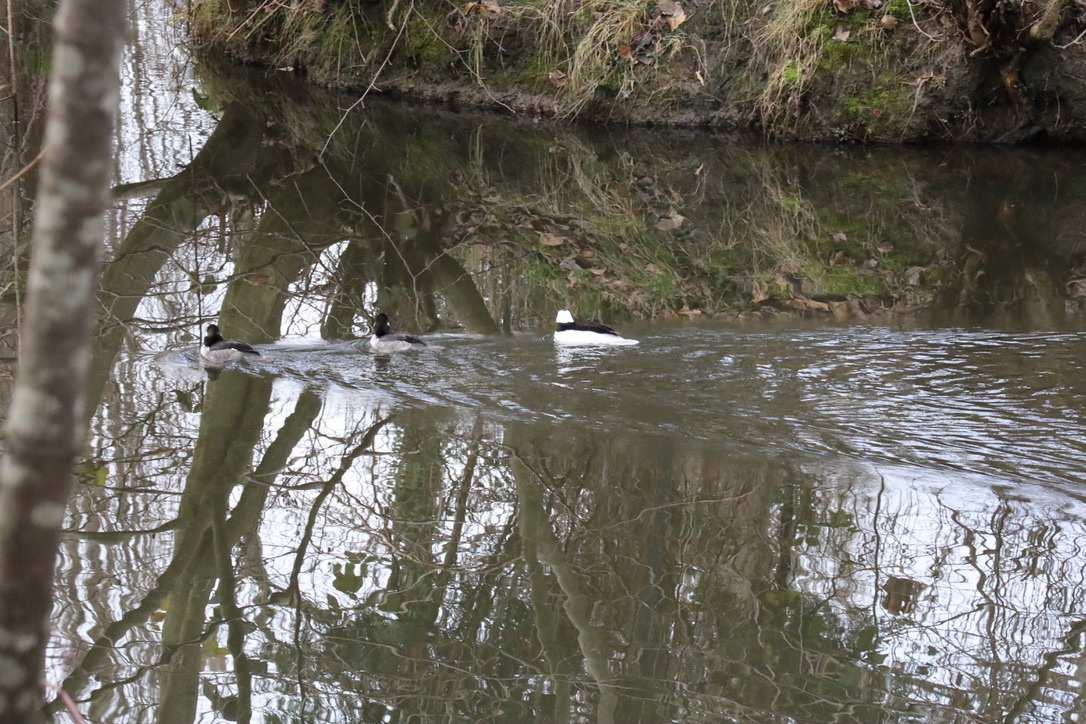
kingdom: Animalia
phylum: Chordata
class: Aves
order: Anseriformes
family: Anatidae
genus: Bucephala
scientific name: Bucephala albeola
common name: Bufflehead
